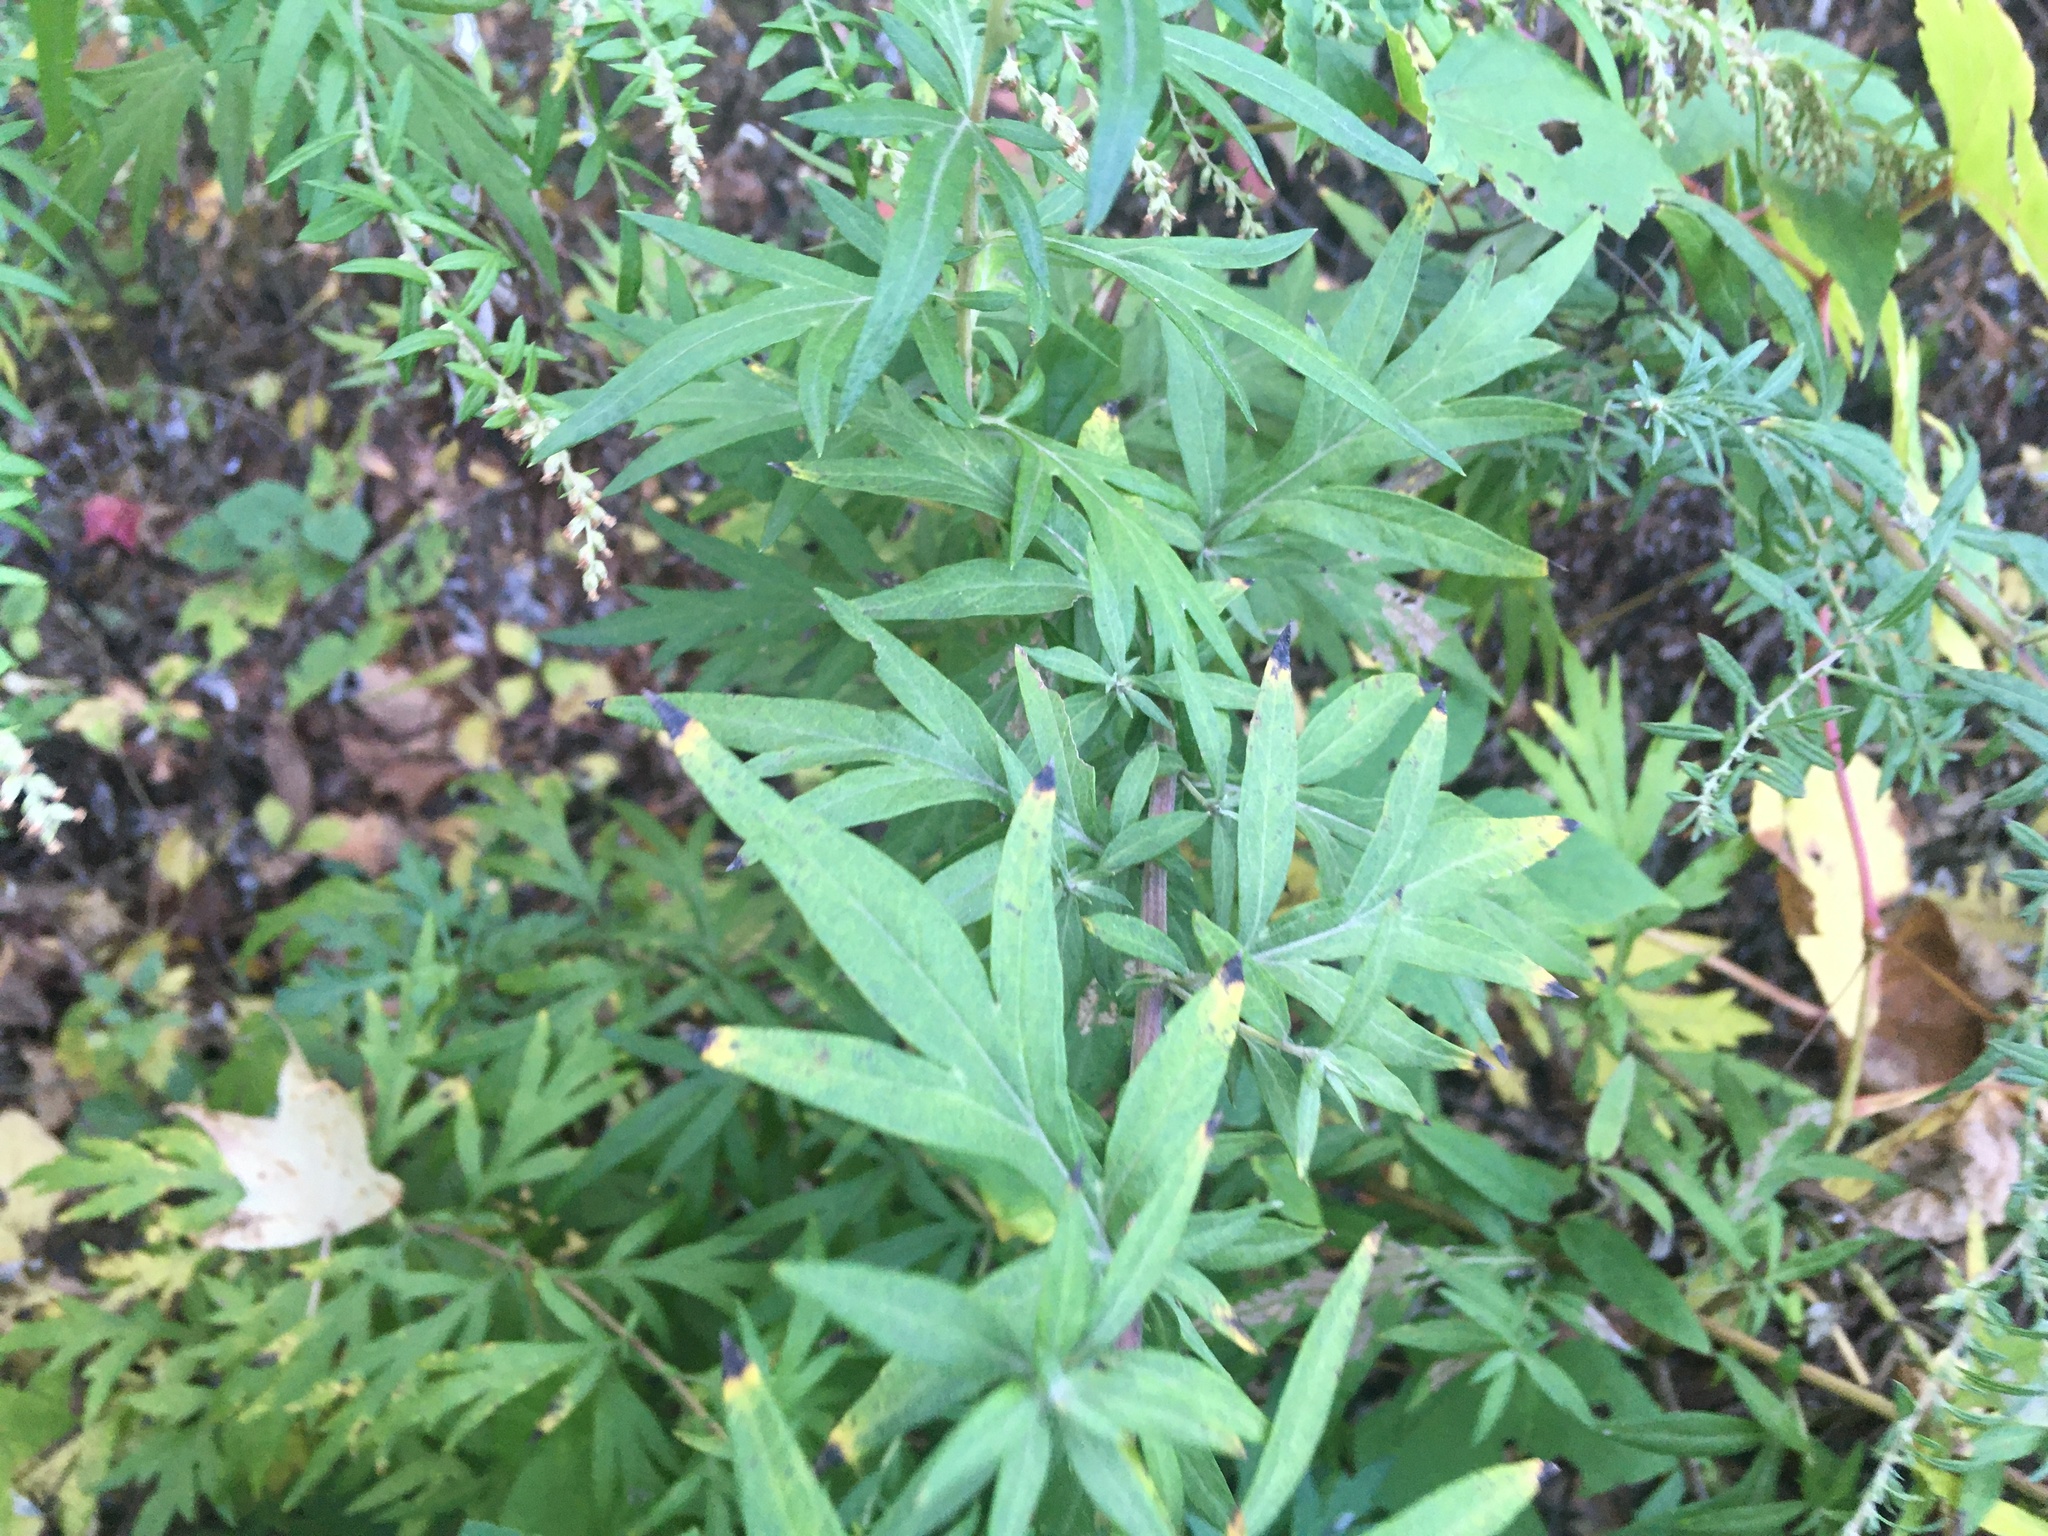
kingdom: Plantae
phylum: Tracheophyta
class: Magnoliopsida
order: Asterales
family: Asteraceae
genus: Artemisia
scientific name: Artemisia vulgaris
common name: Mugwort
